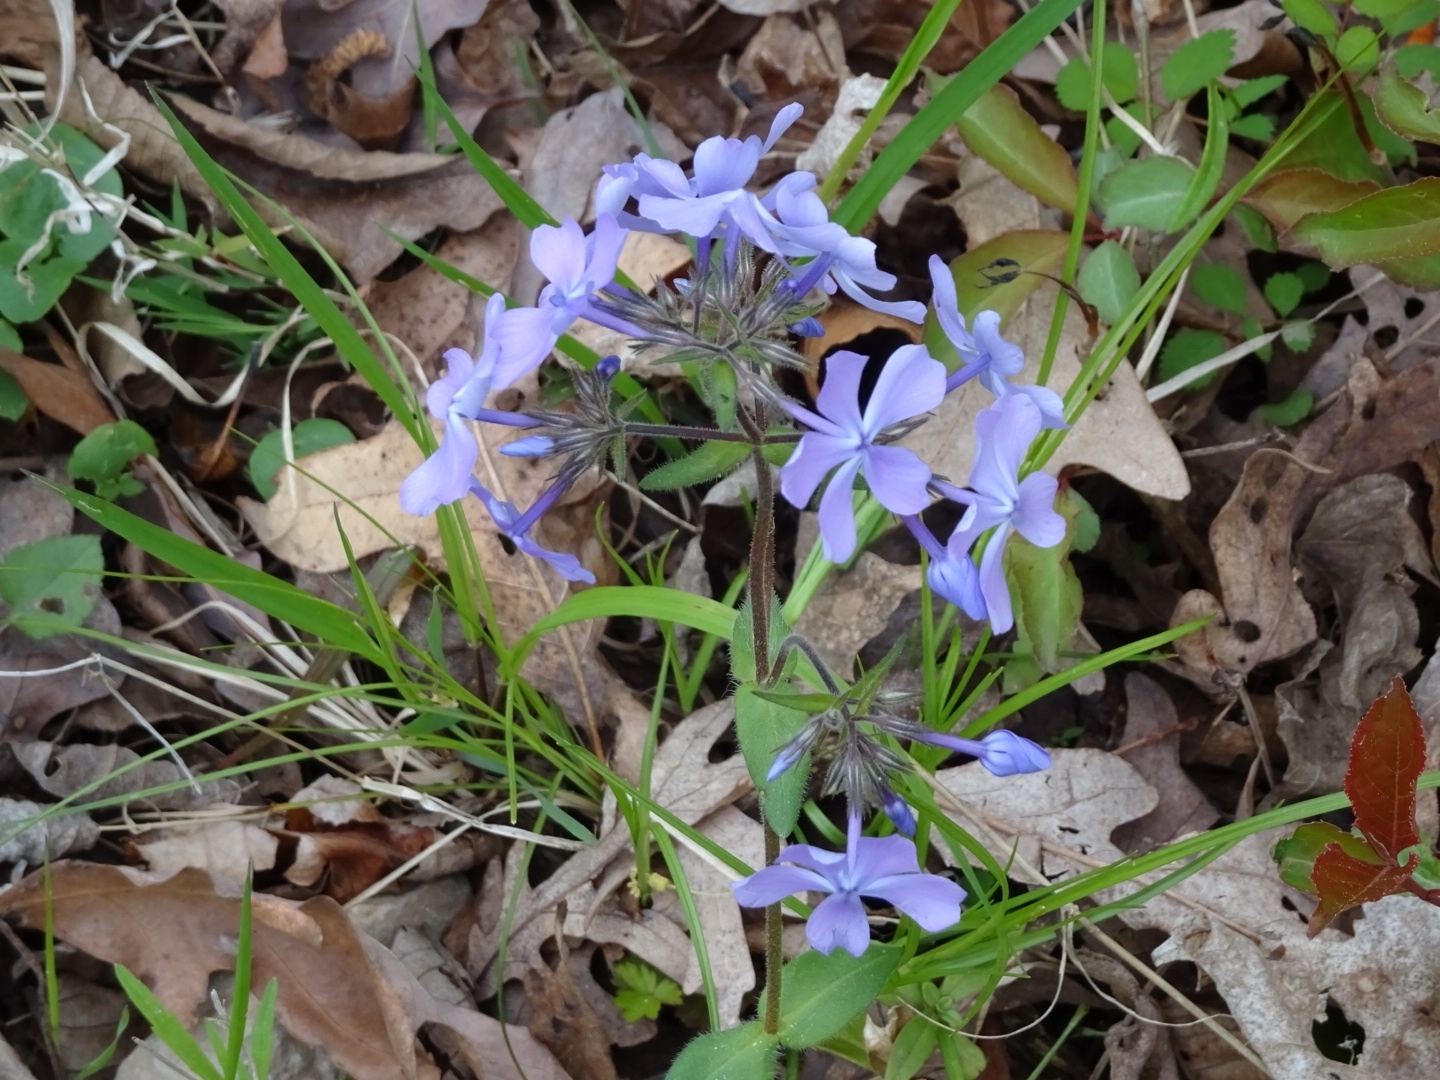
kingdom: Plantae
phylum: Tracheophyta
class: Magnoliopsida
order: Ericales
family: Polemoniaceae
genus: Phlox
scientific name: Phlox divaricata
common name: Blue phlox
